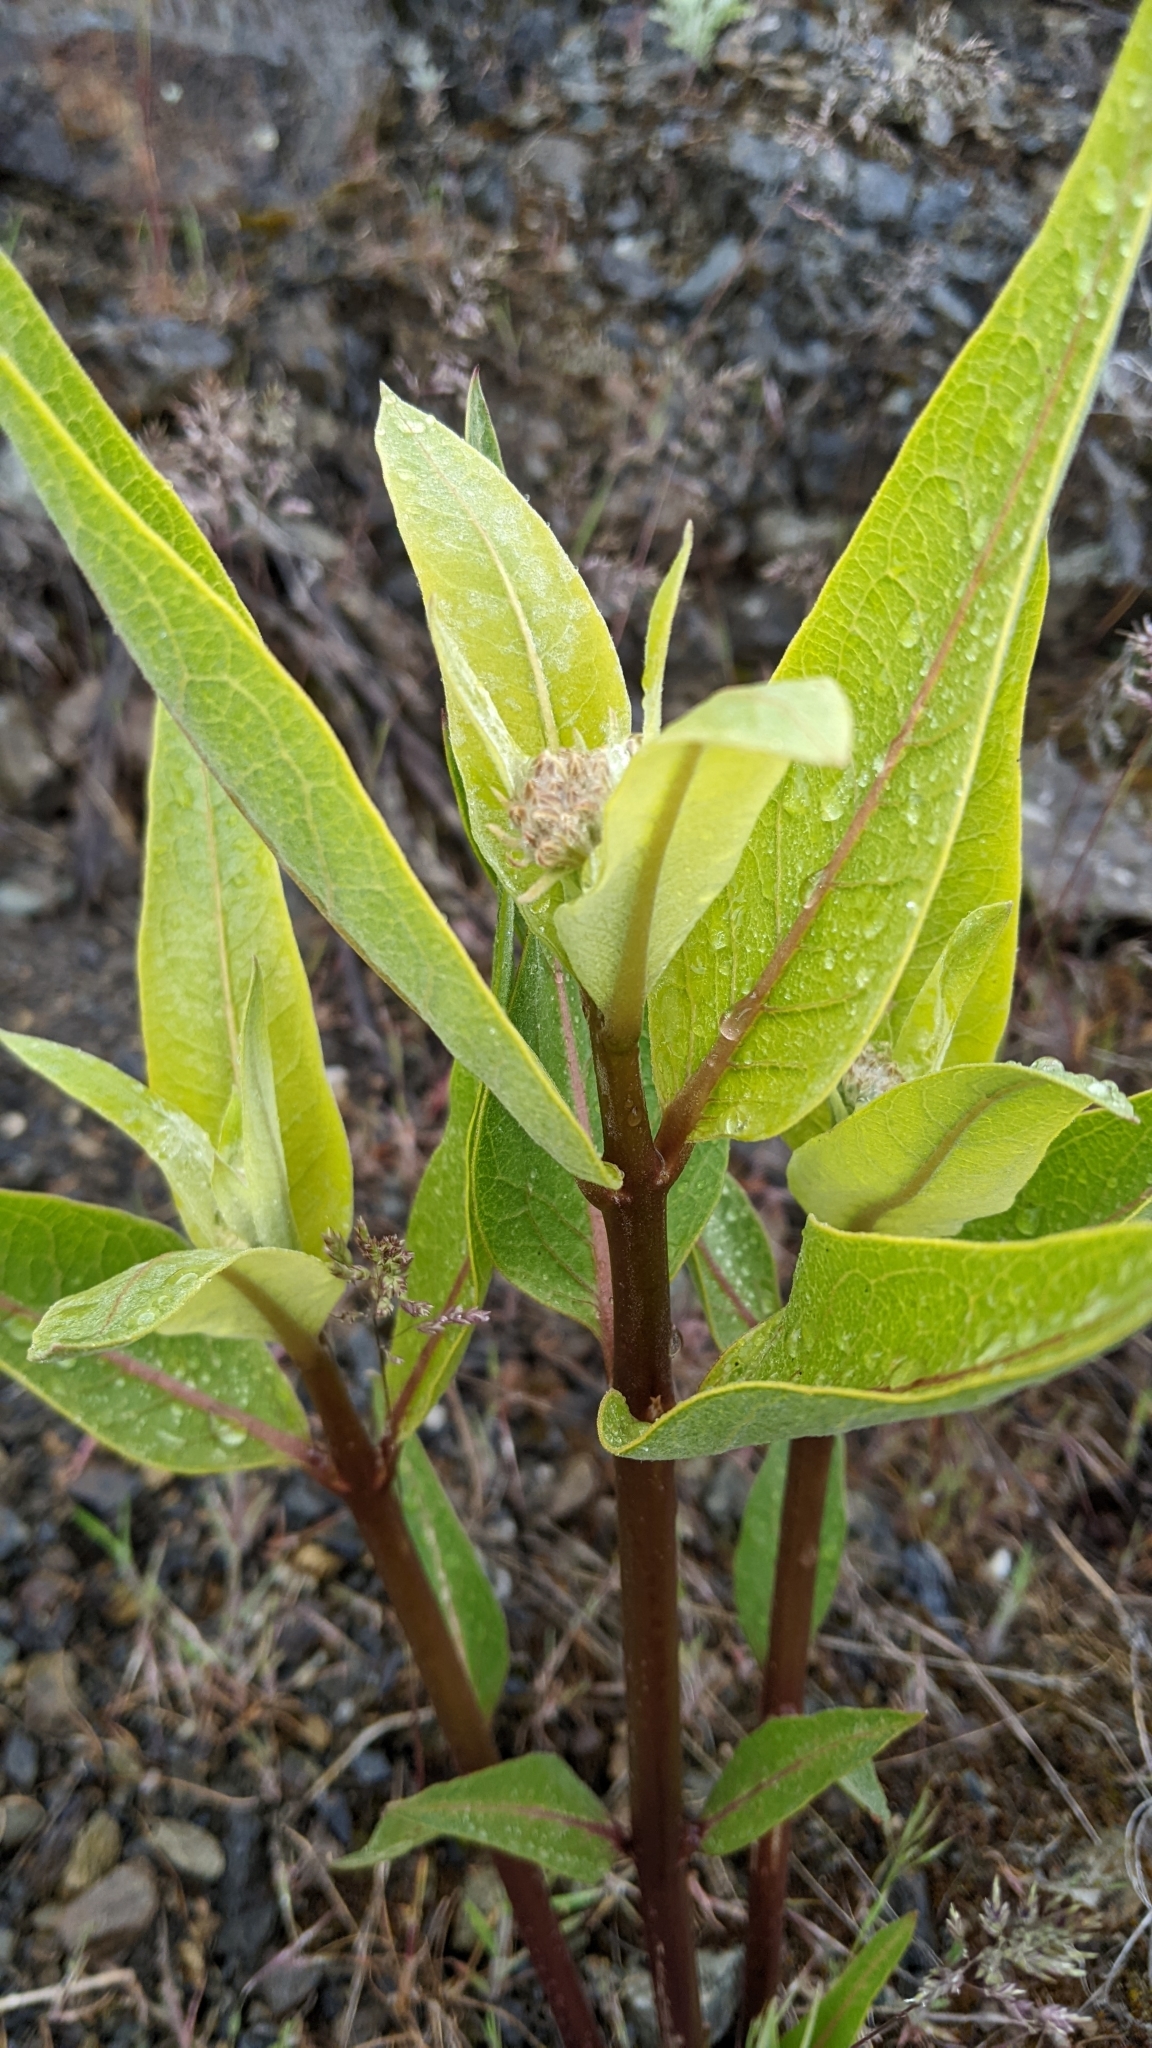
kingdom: Plantae
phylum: Tracheophyta
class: Magnoliopsida
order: Gentianales
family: Apocynaceae
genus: Asclepias
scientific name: Asclepias speciosa
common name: Showy milkweed
